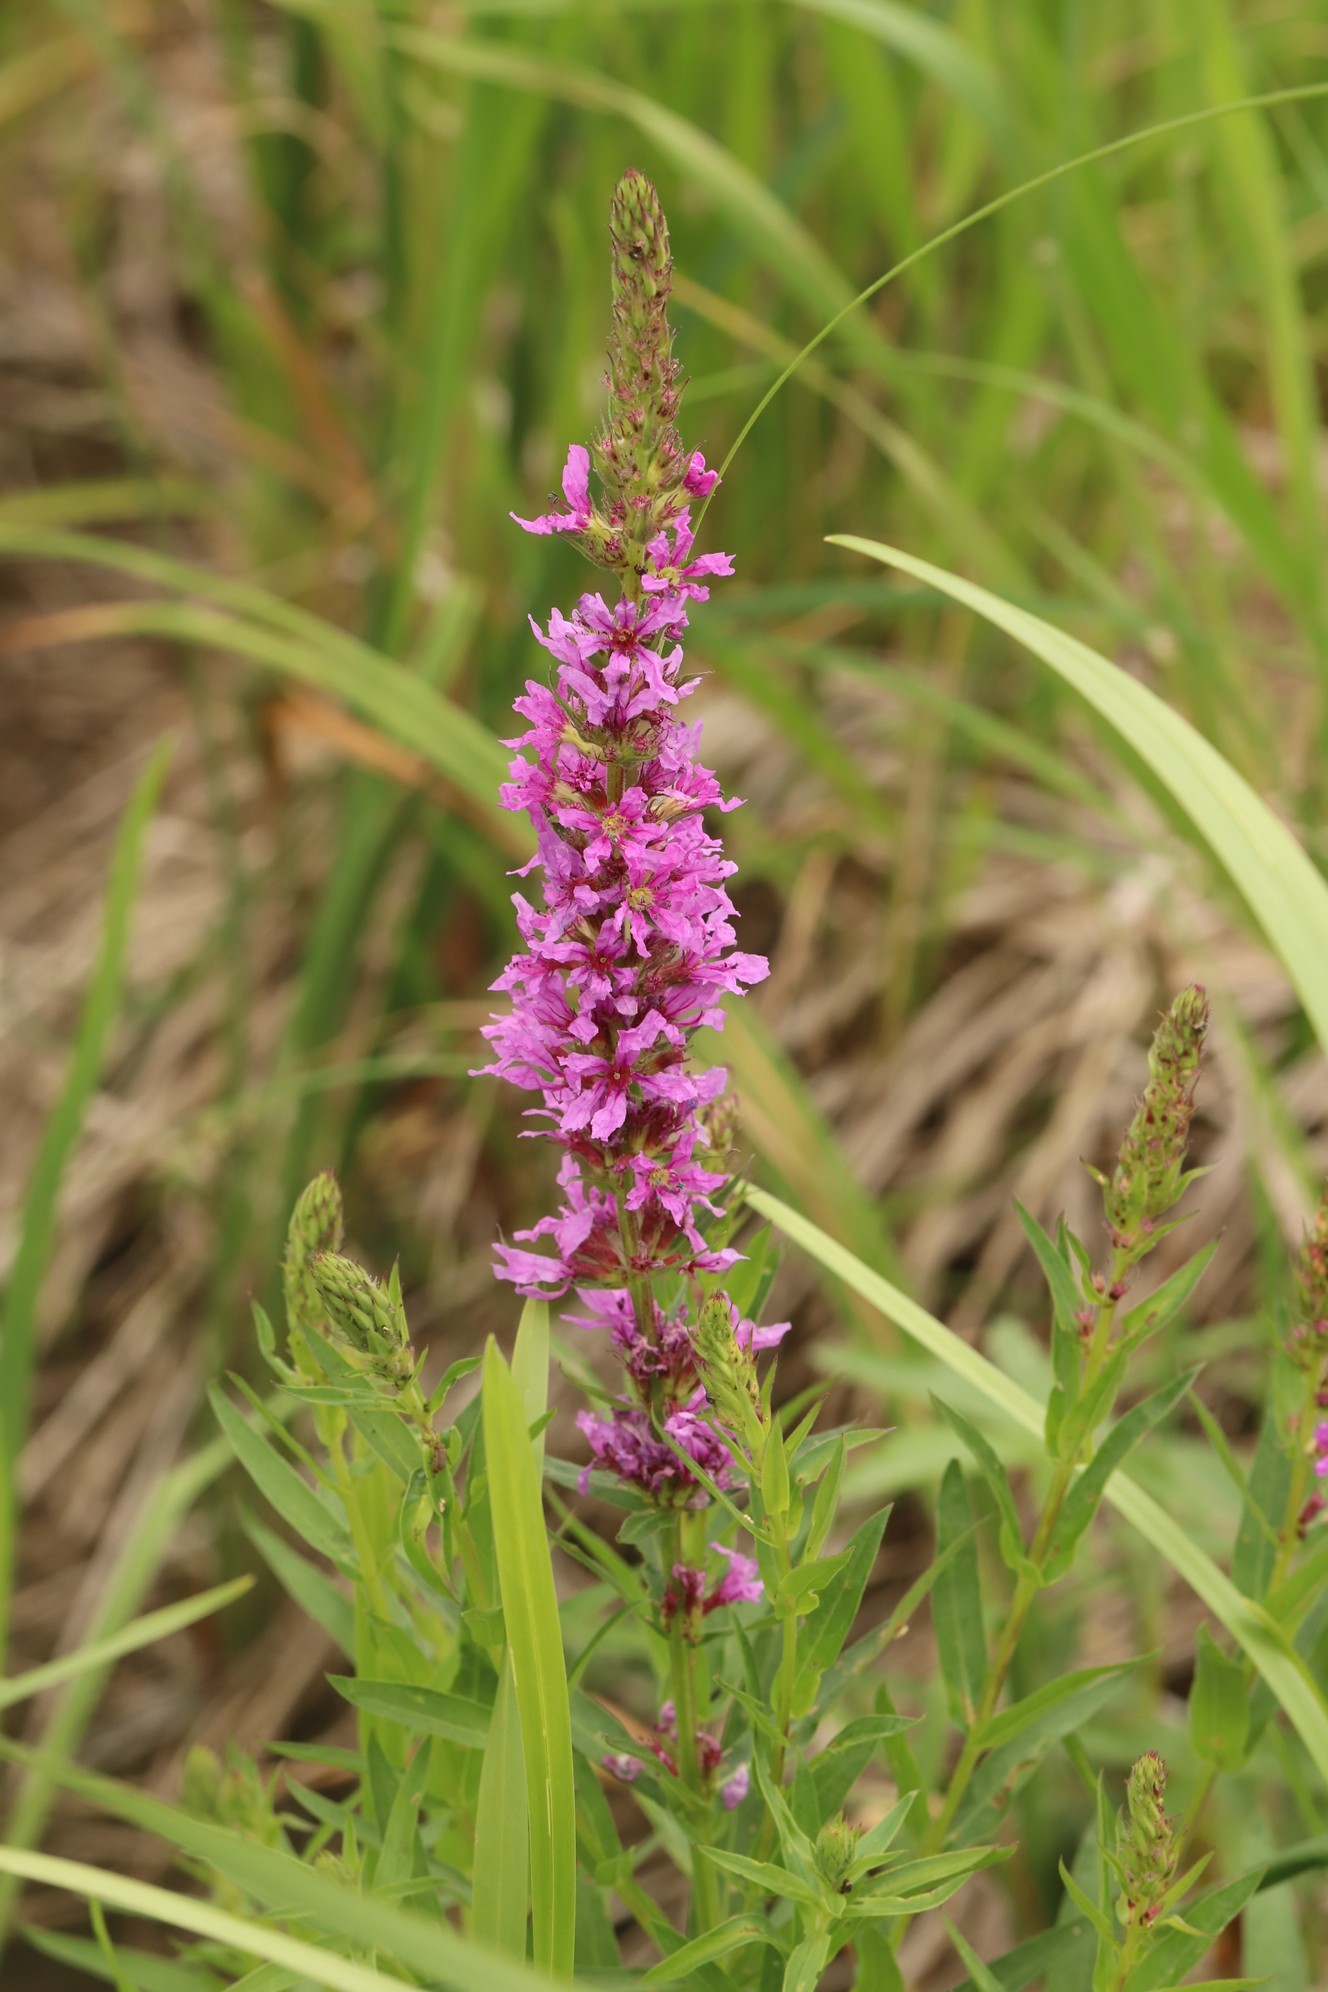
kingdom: Plantae
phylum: Tracheophyta
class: Magnoliopsida
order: Myrtales
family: Lythraceae
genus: Lythrum
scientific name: Lythrum salicaria
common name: Purple loosestrife
